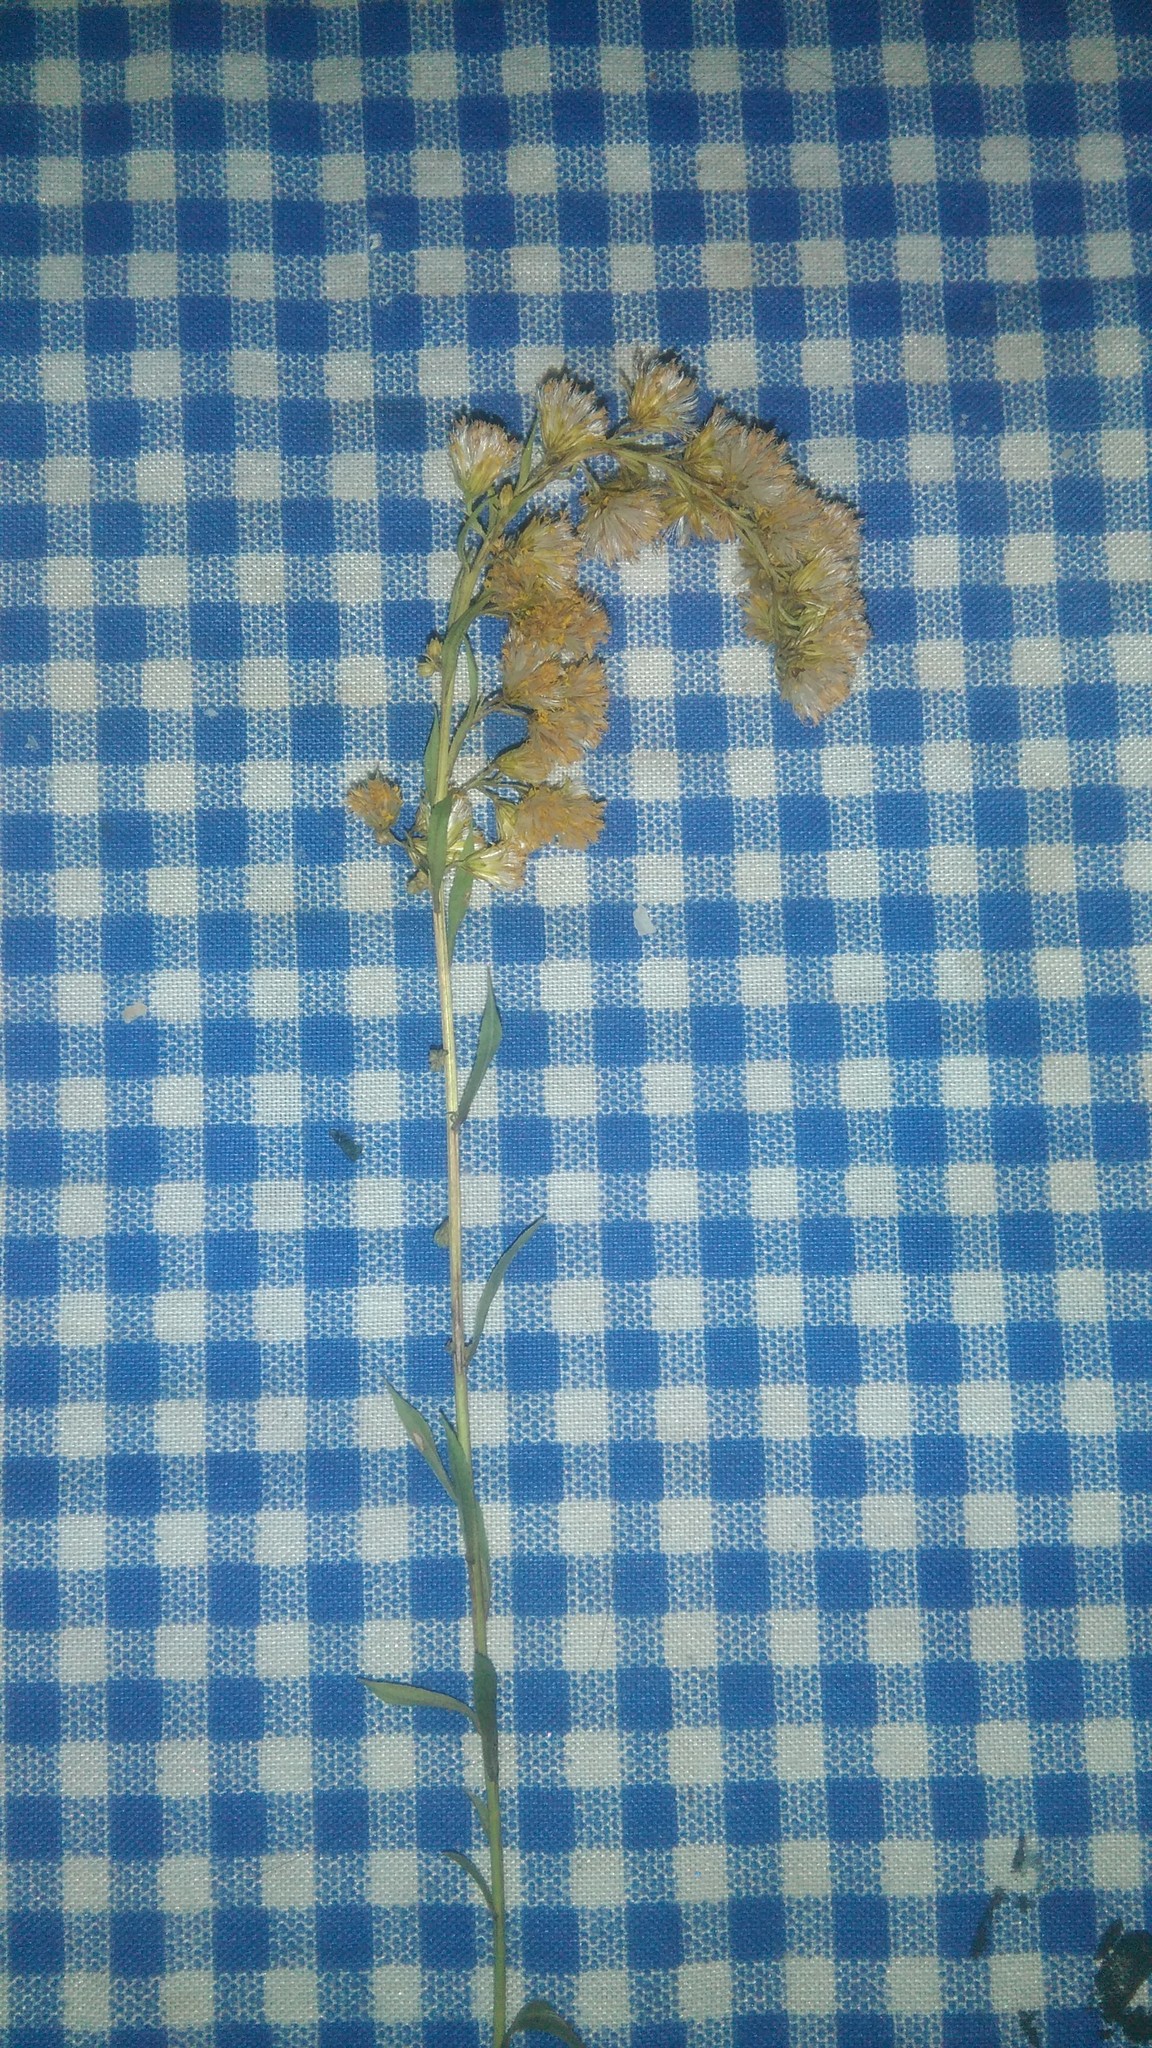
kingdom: Plantae
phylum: Tracheophyta
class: Magnoliopsida
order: Asterales
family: Asteraceae
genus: Solidago
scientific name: Solidago chilensis
